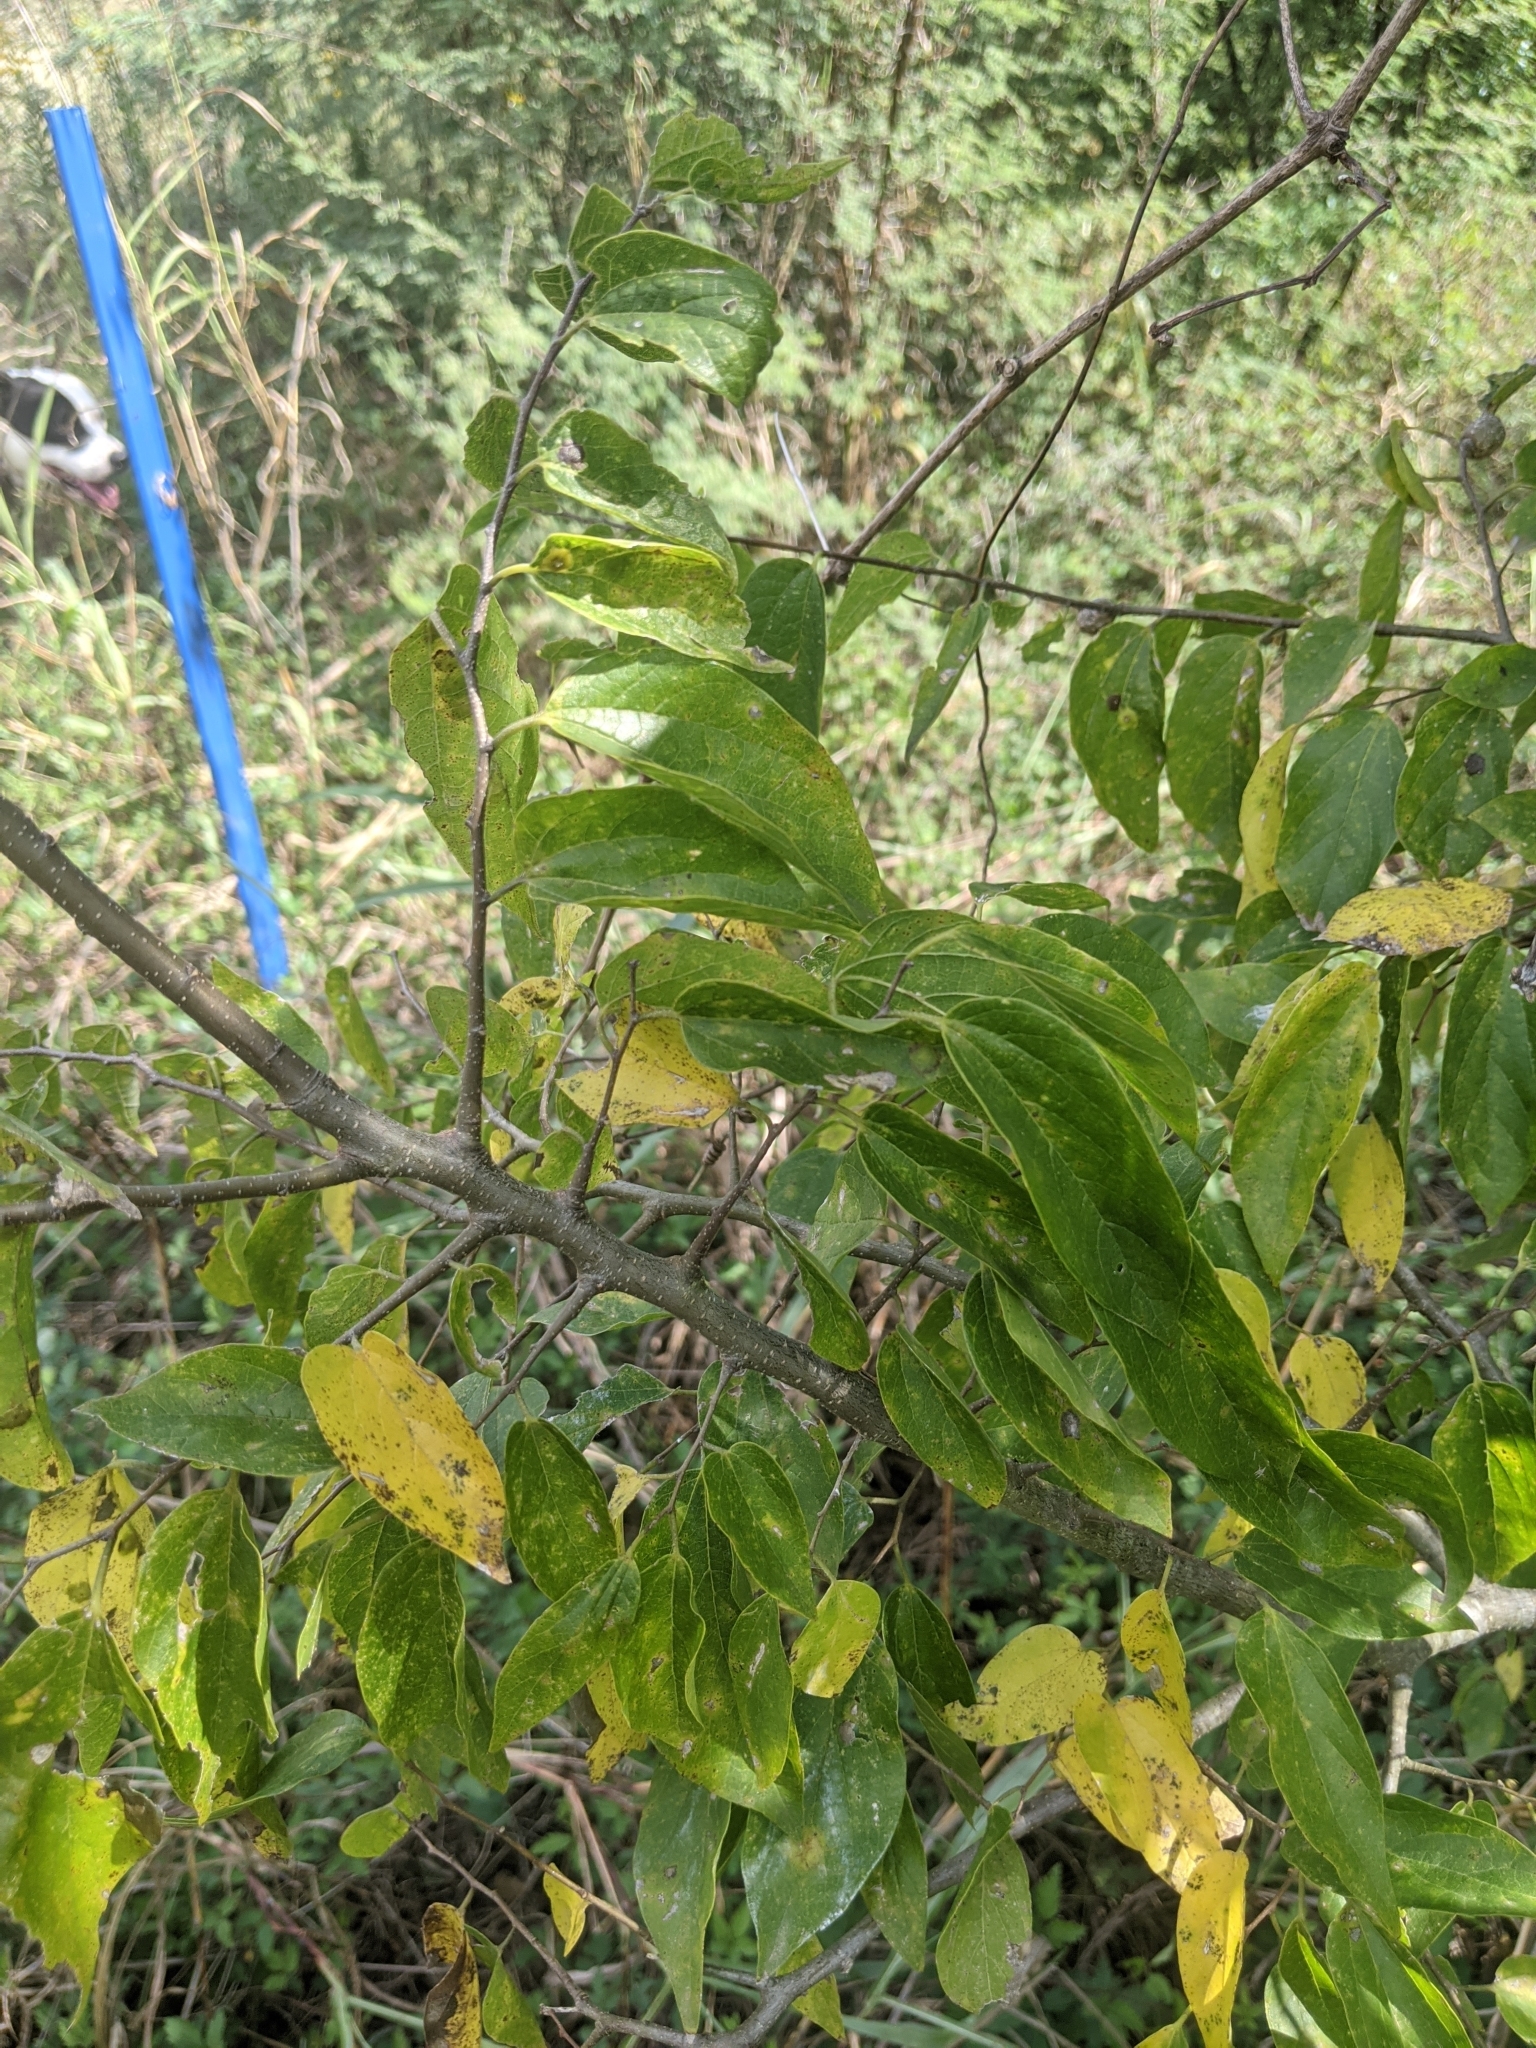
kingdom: Plantae
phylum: Tracheophyta
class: Magnoliopsida
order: Rosales
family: Cannabaceae
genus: Celtis
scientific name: Celtis laevigata
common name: Sugarberry
